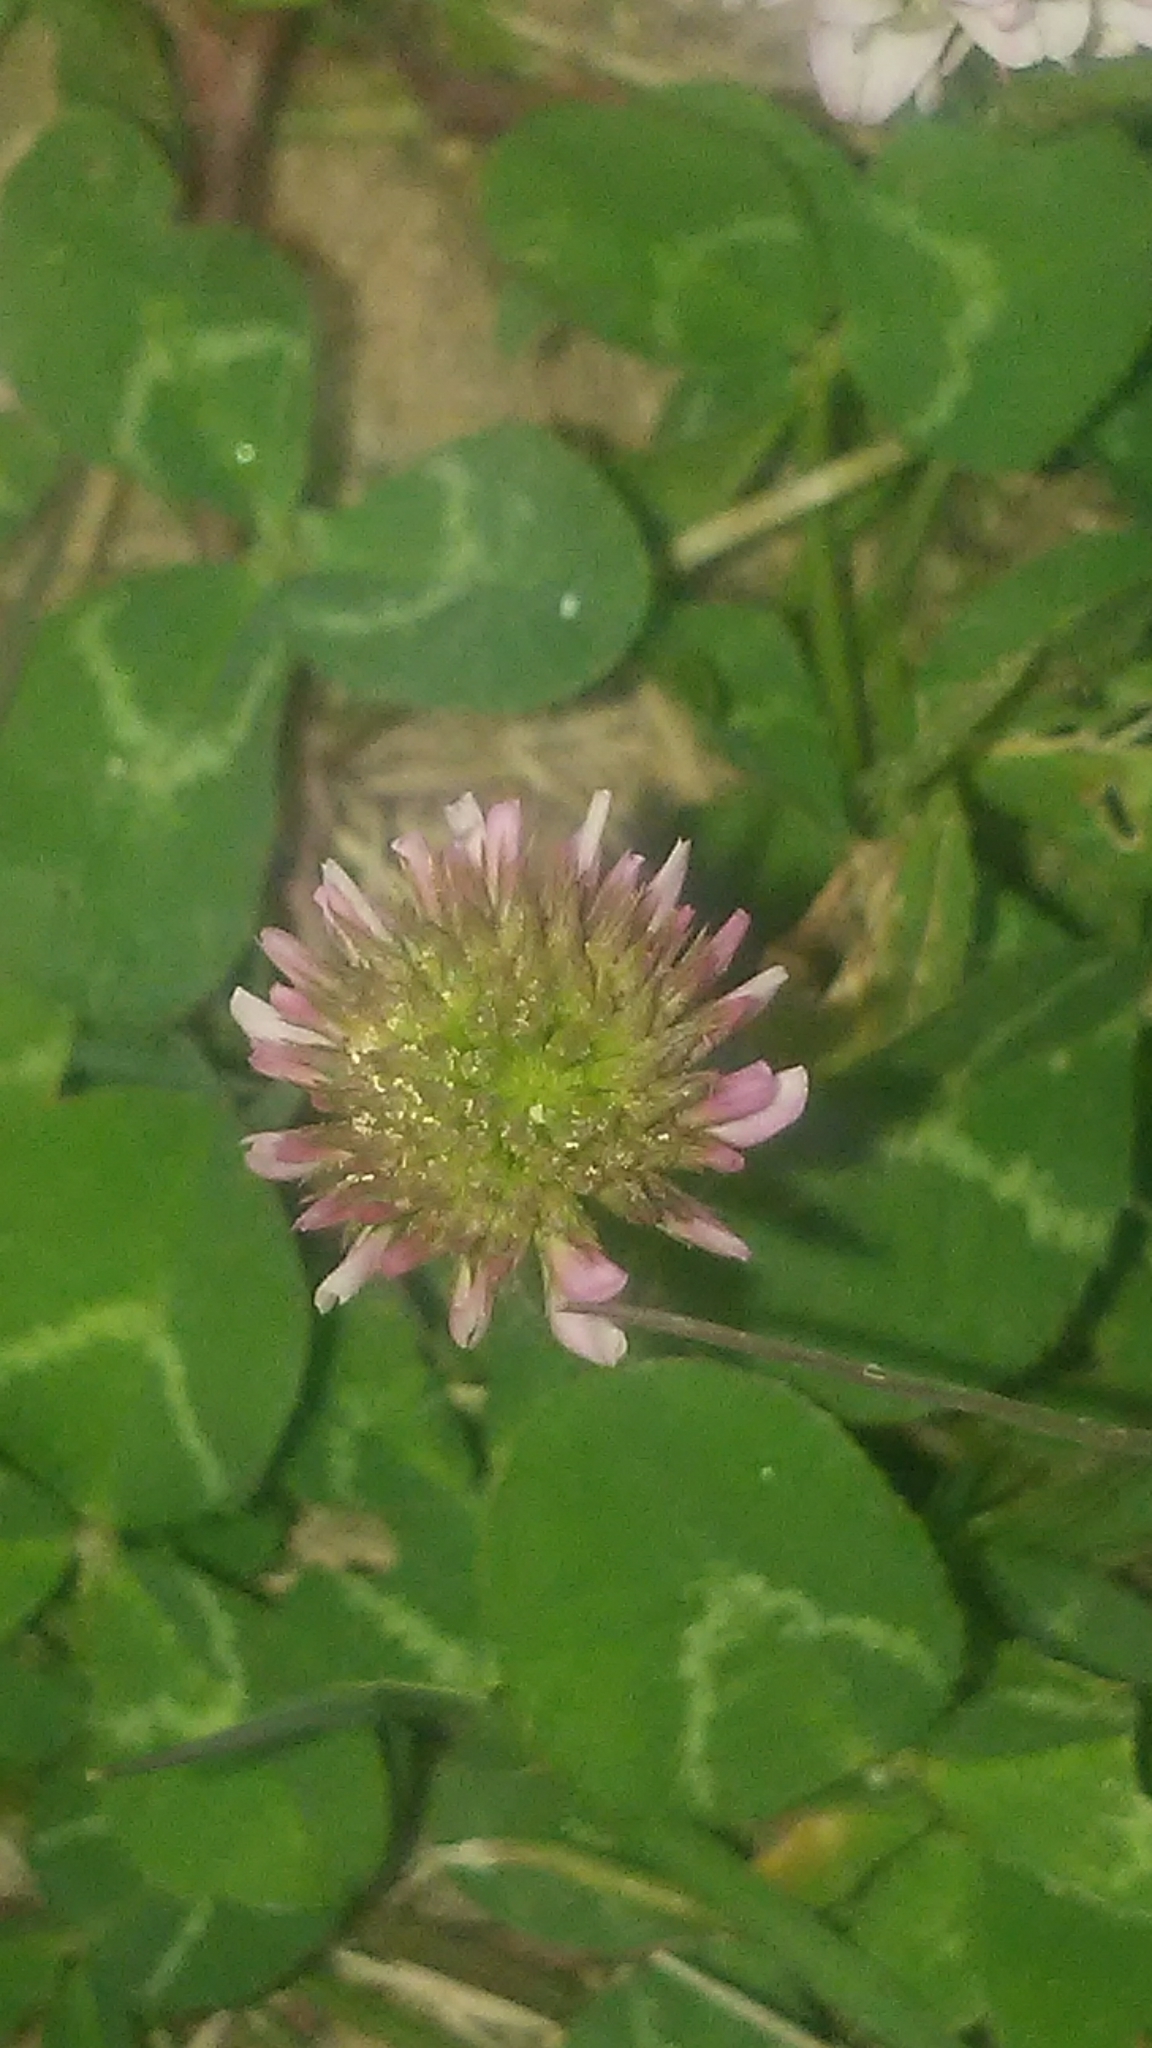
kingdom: Plantae
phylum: Tracheophyta
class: Magnoliopsida
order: Fabales
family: Fabaceae
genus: Trifolium
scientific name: Trifolium repens
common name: White clover
